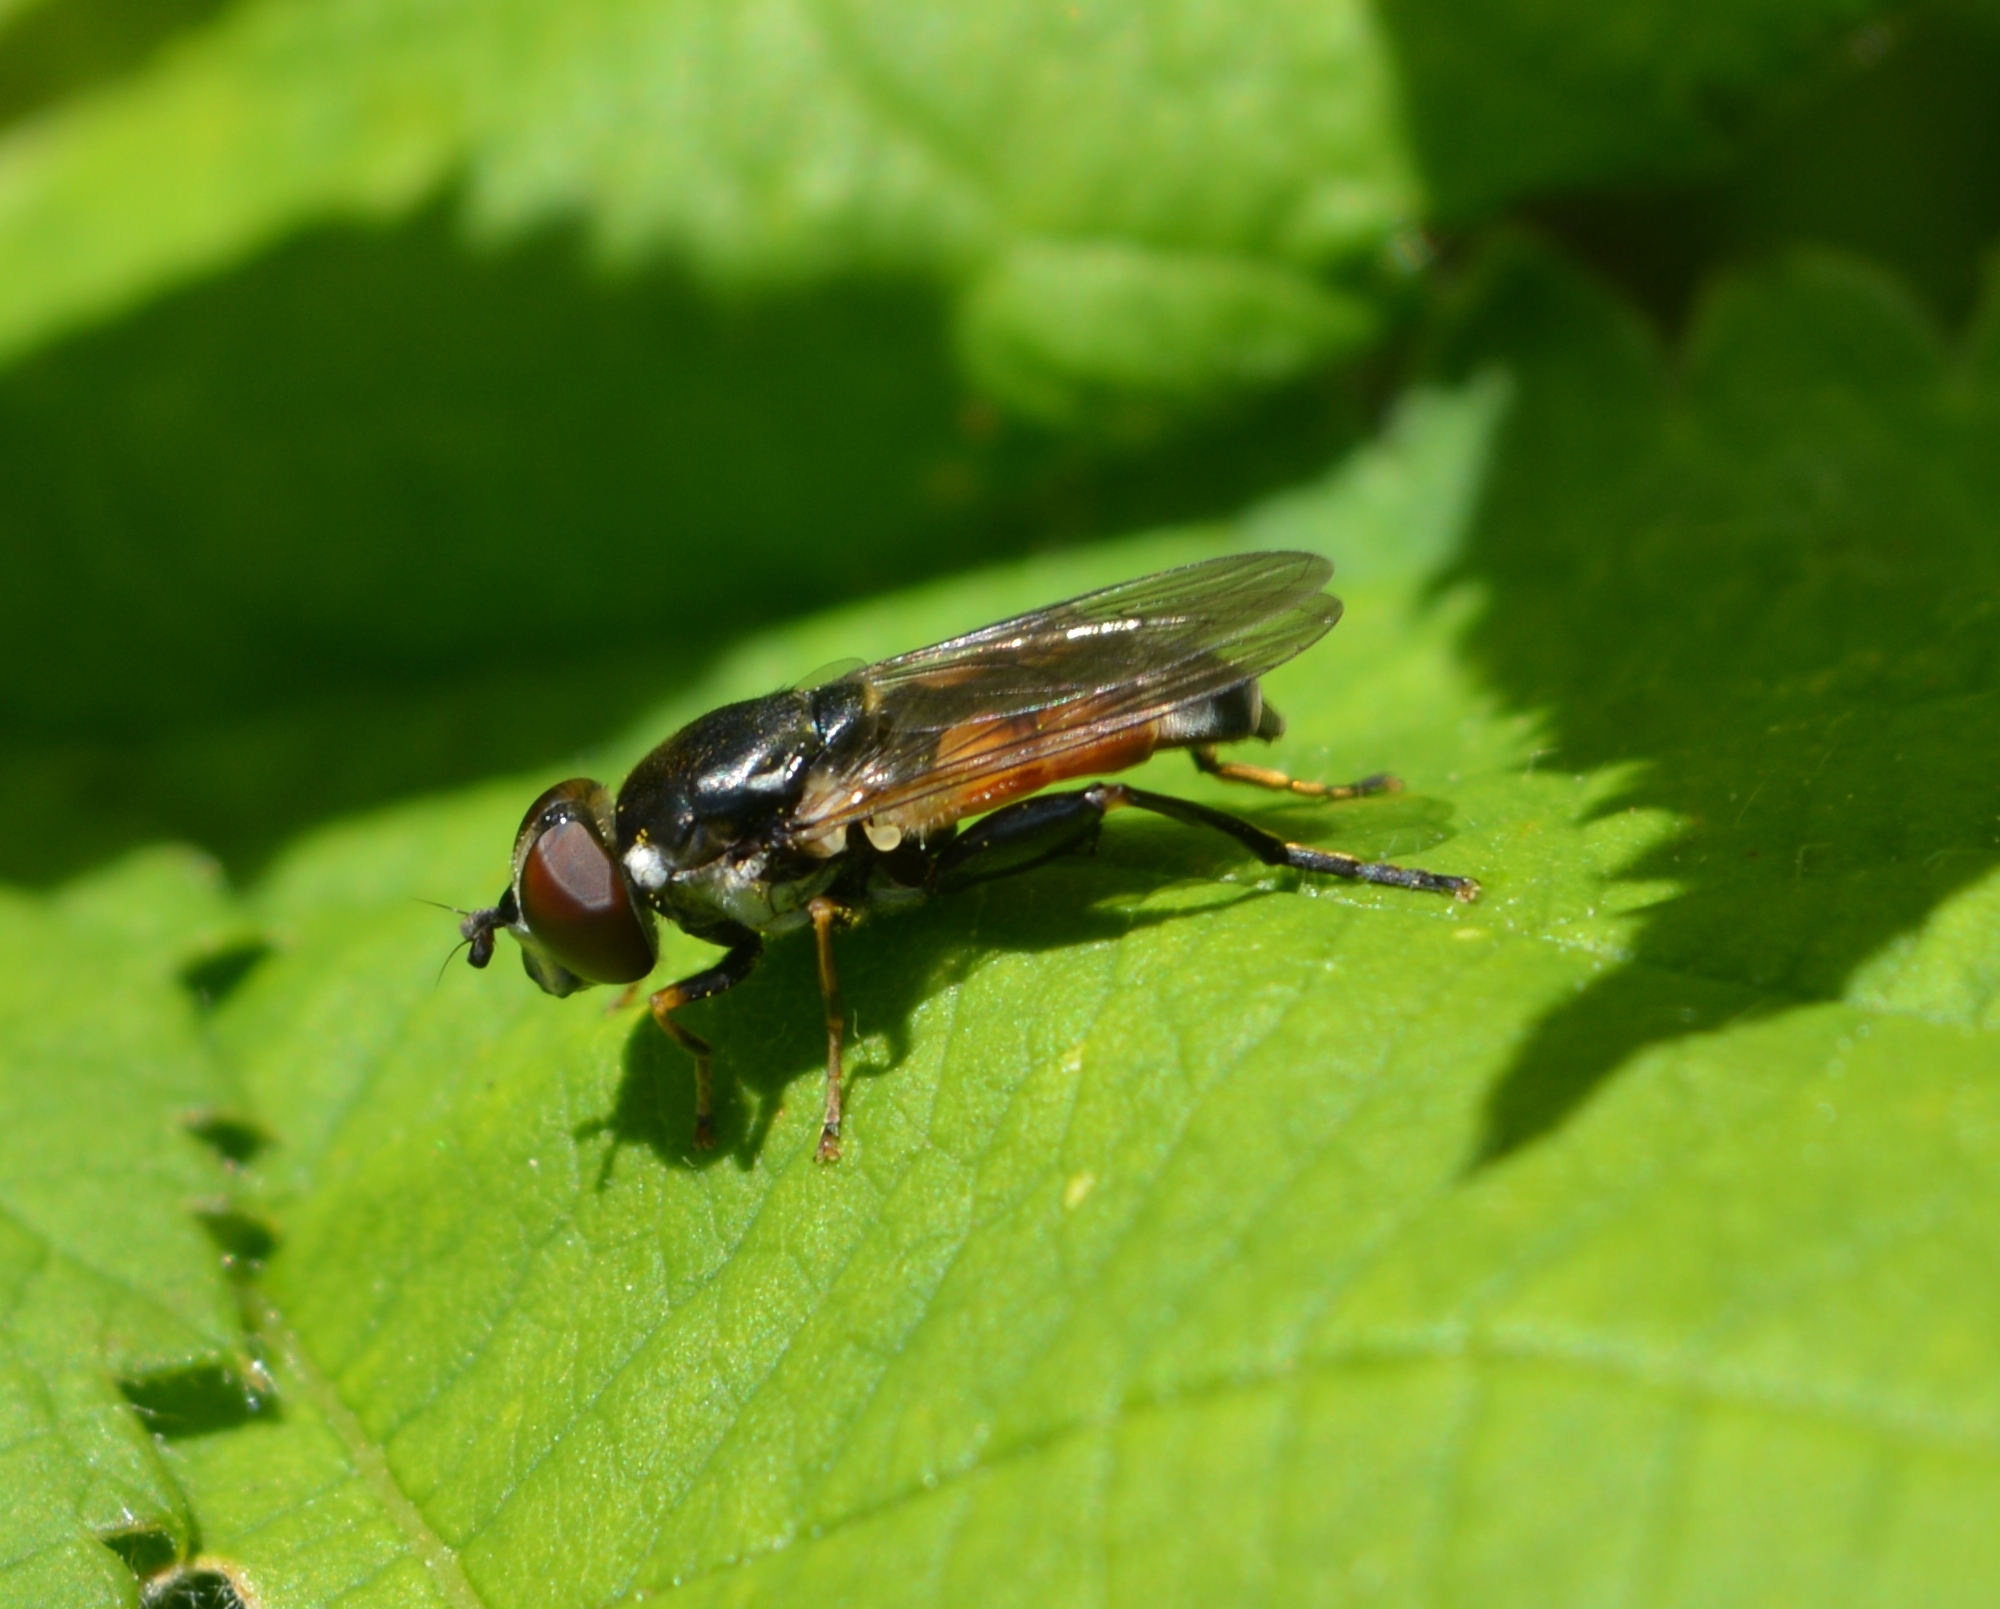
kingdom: Animalia
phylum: Arthropoda
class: Insecta
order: Diptera
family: Syrphidae
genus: Tropidia
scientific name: Tropidia scita
